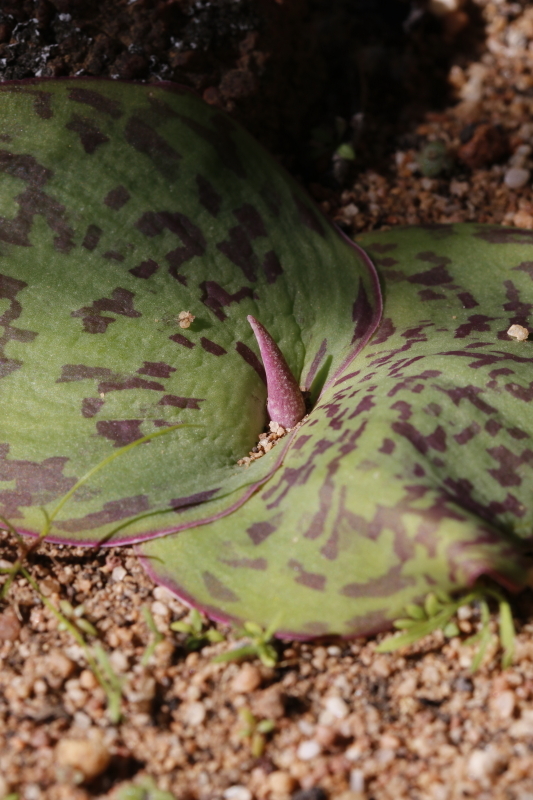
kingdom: Plantae
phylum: Tracheophyta
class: Liliopsida
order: Asparagales
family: Asparagaceae
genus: Massonia
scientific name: Massonia depressa
